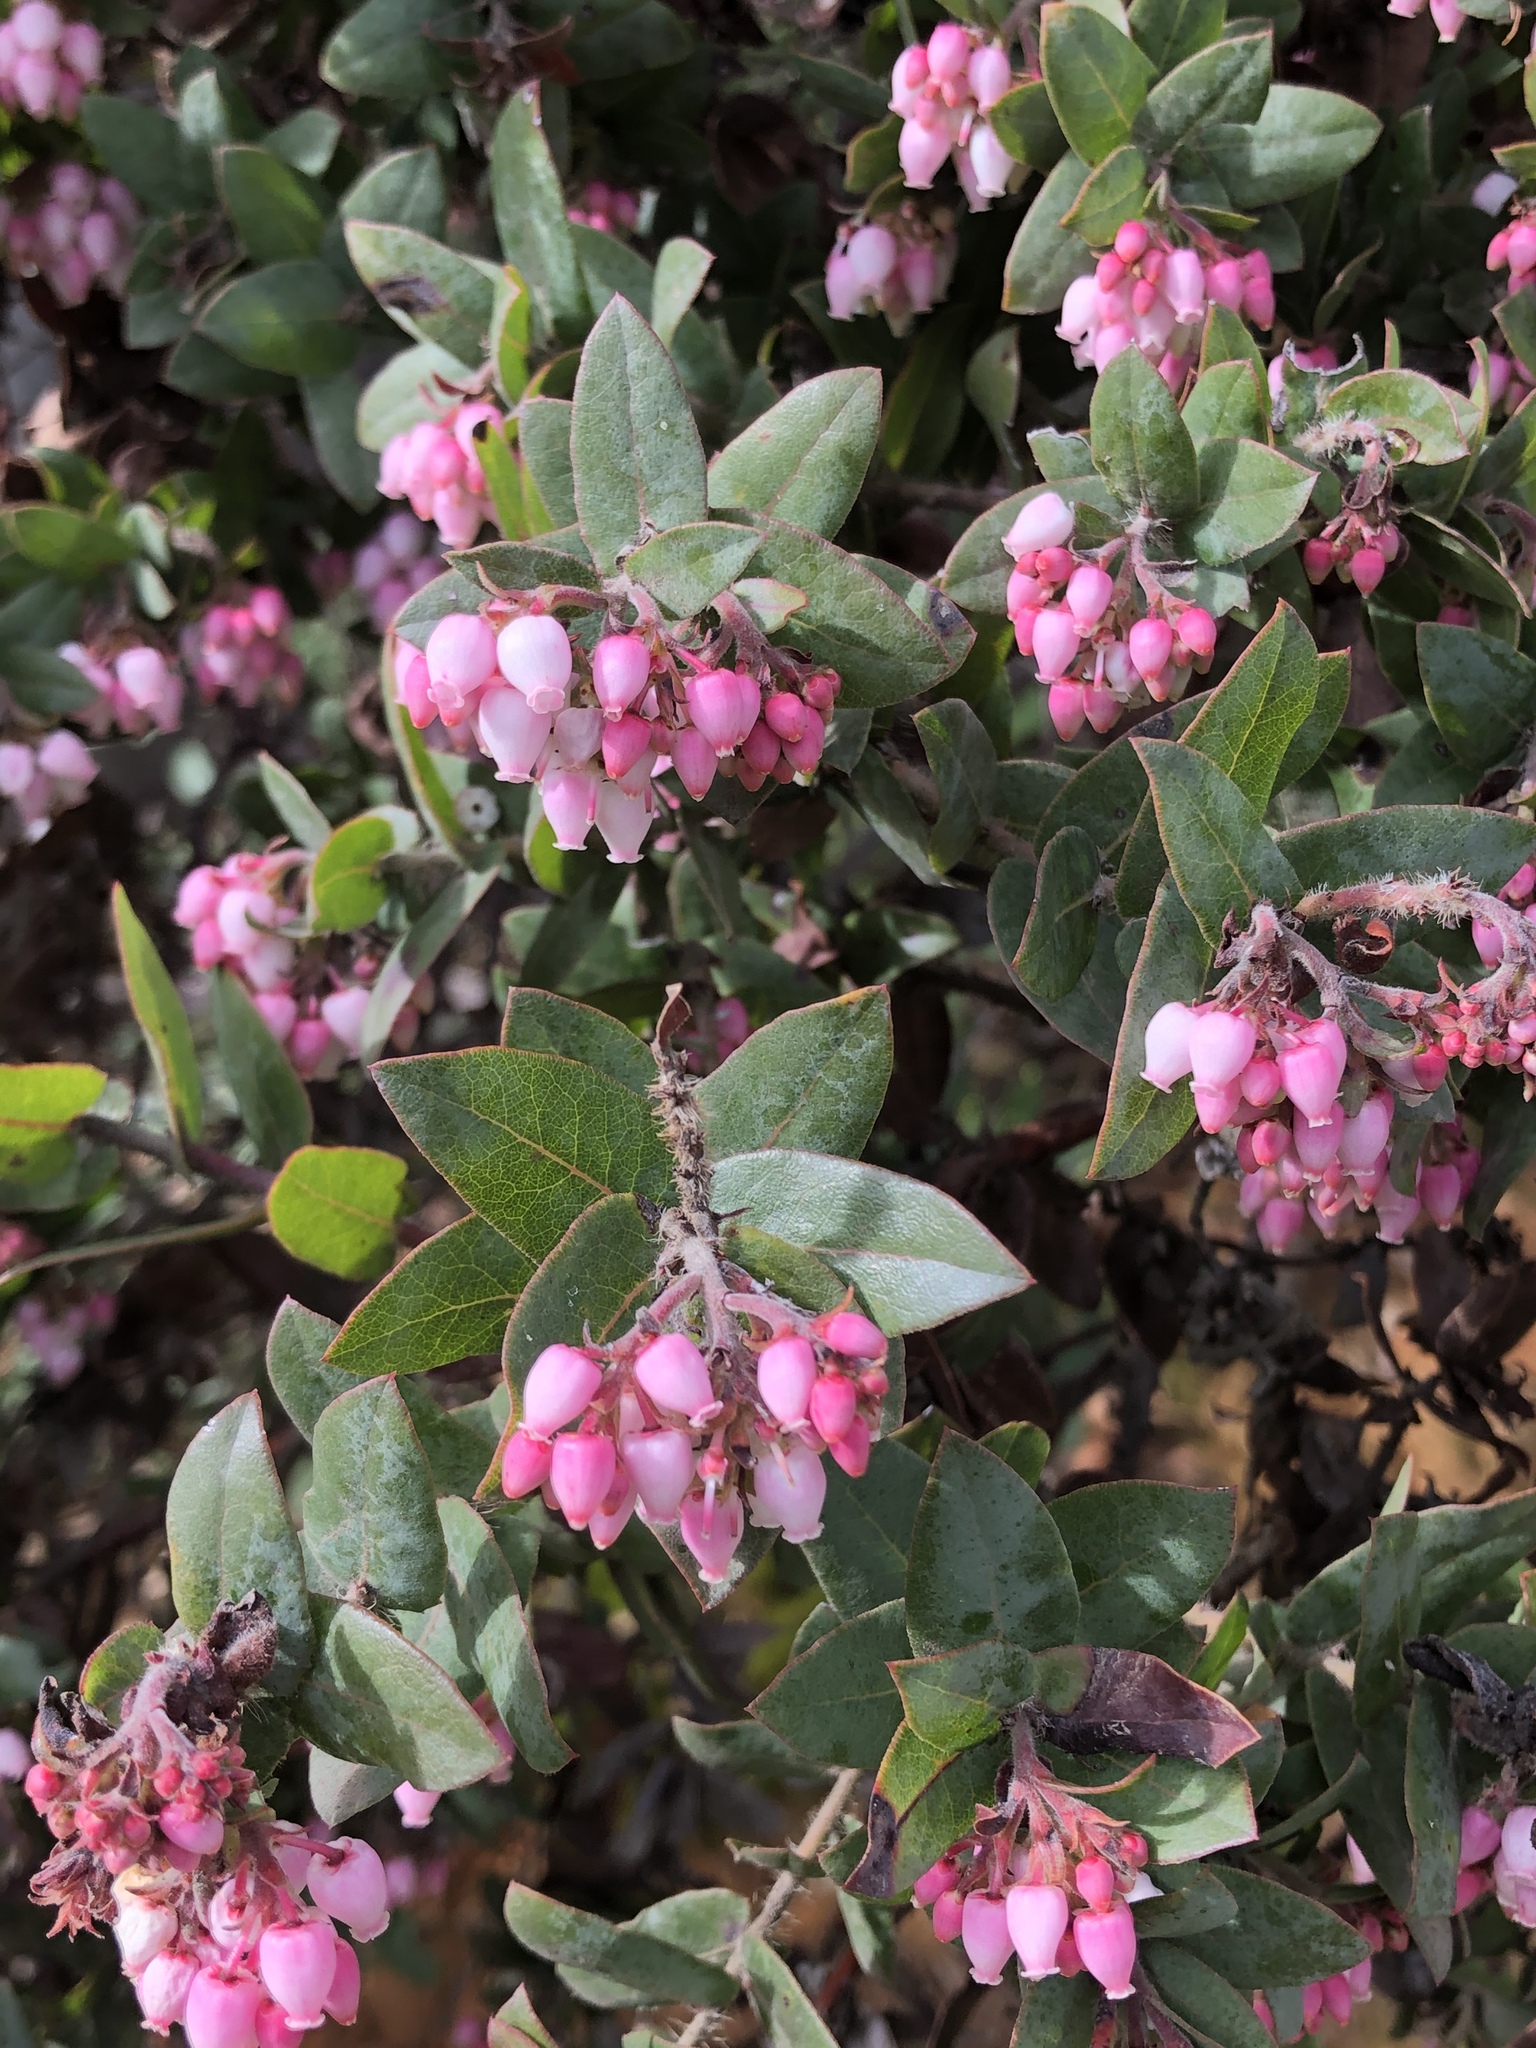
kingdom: Plantae
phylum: Tracheophyta
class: Magnoliopsida
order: Ericales
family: Ericaceae
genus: Arctostaphylos
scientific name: Arctostaphylos pajaroensis
